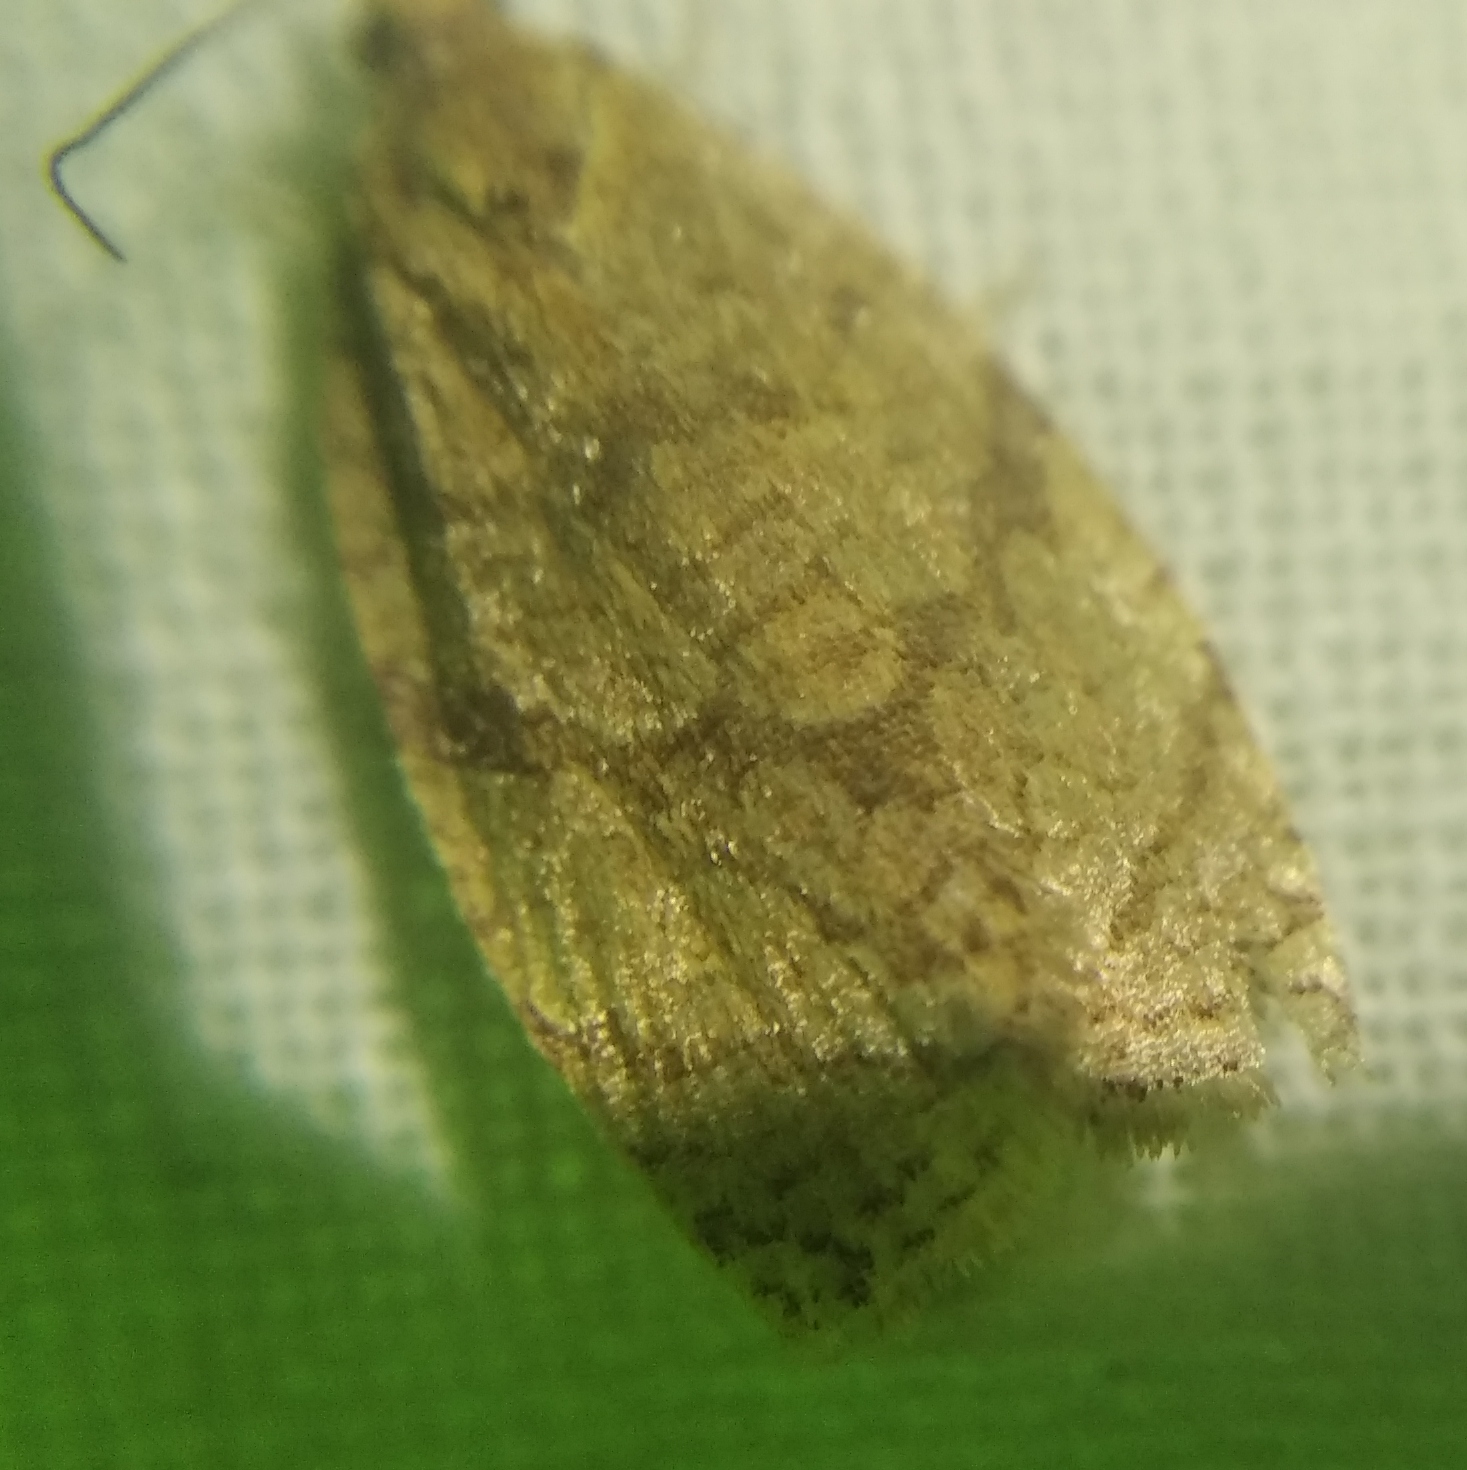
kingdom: Animalia
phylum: Arthropoda
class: Insecta
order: Lepidoptera
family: Tortricidae
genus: Adoxophyes
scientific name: Adoxophyes orana
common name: Summer fruit tortrix
